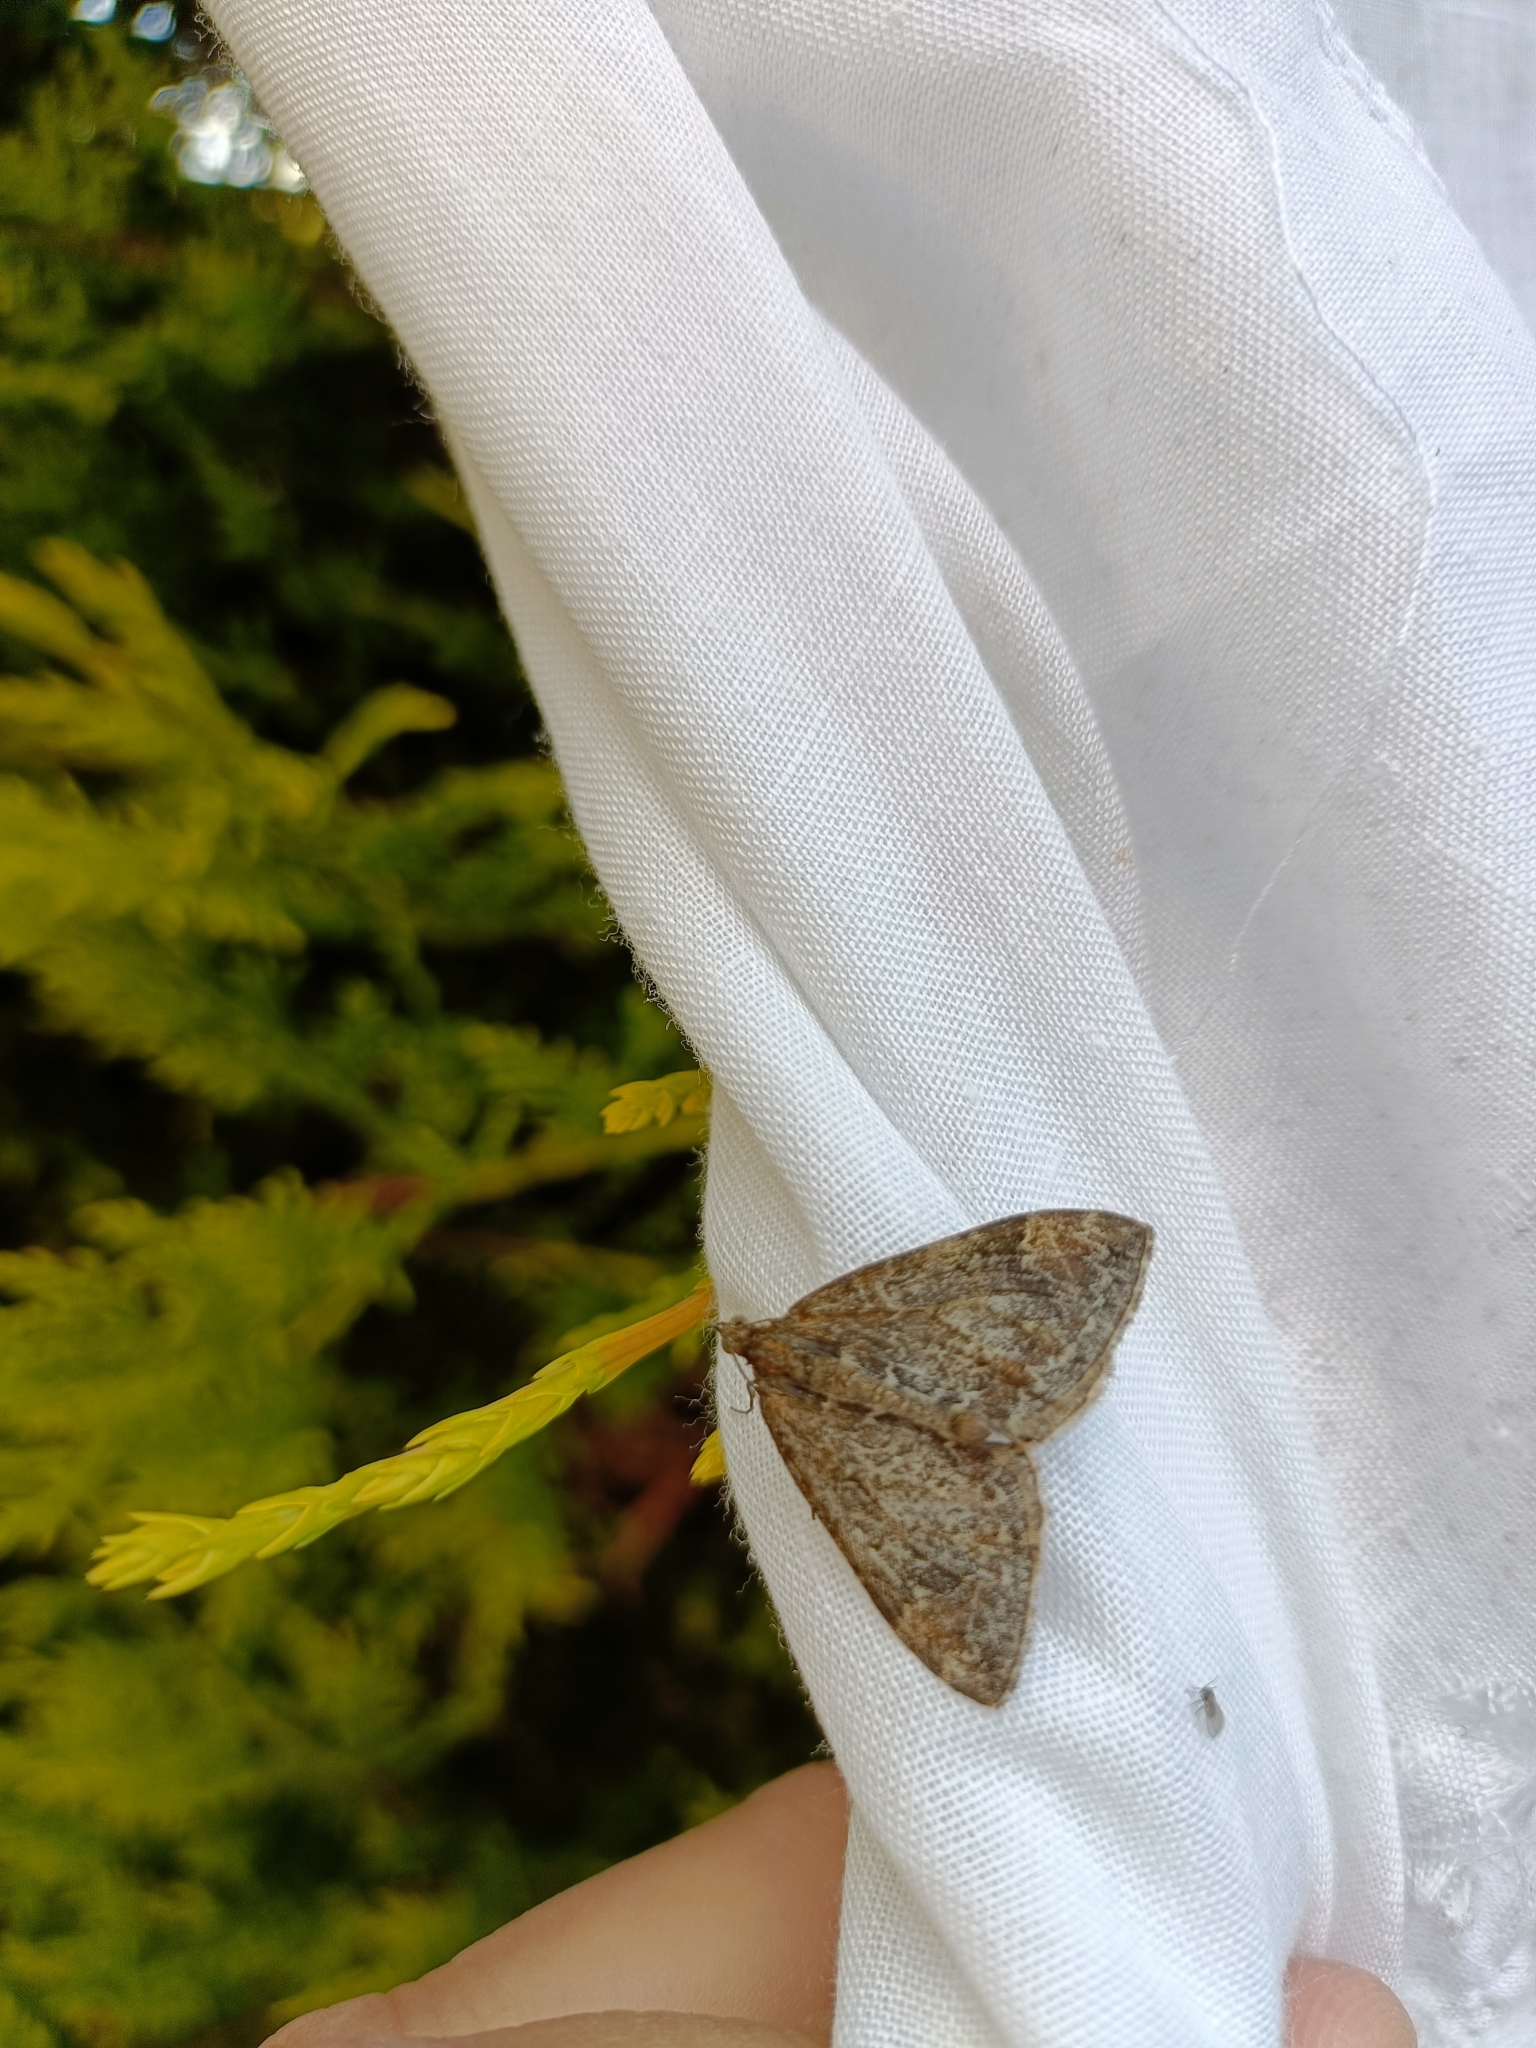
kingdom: Animalia
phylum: Arthropoda
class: Insecta
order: Lepidoptera
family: Geometridae
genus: Dysstroma
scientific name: Dysstroma truncata
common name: Common marbled carpet
